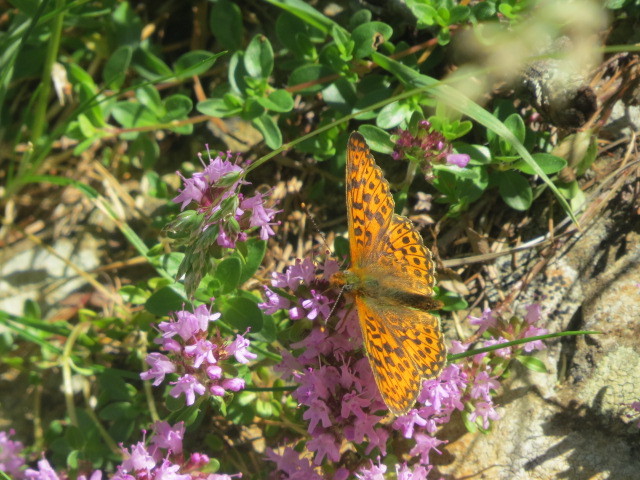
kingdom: Animalia
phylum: Arthropoda
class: Insecta
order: Lepidoptera
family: Nymphalidae
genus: Clossiana
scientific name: Clossiana euphrosyne
